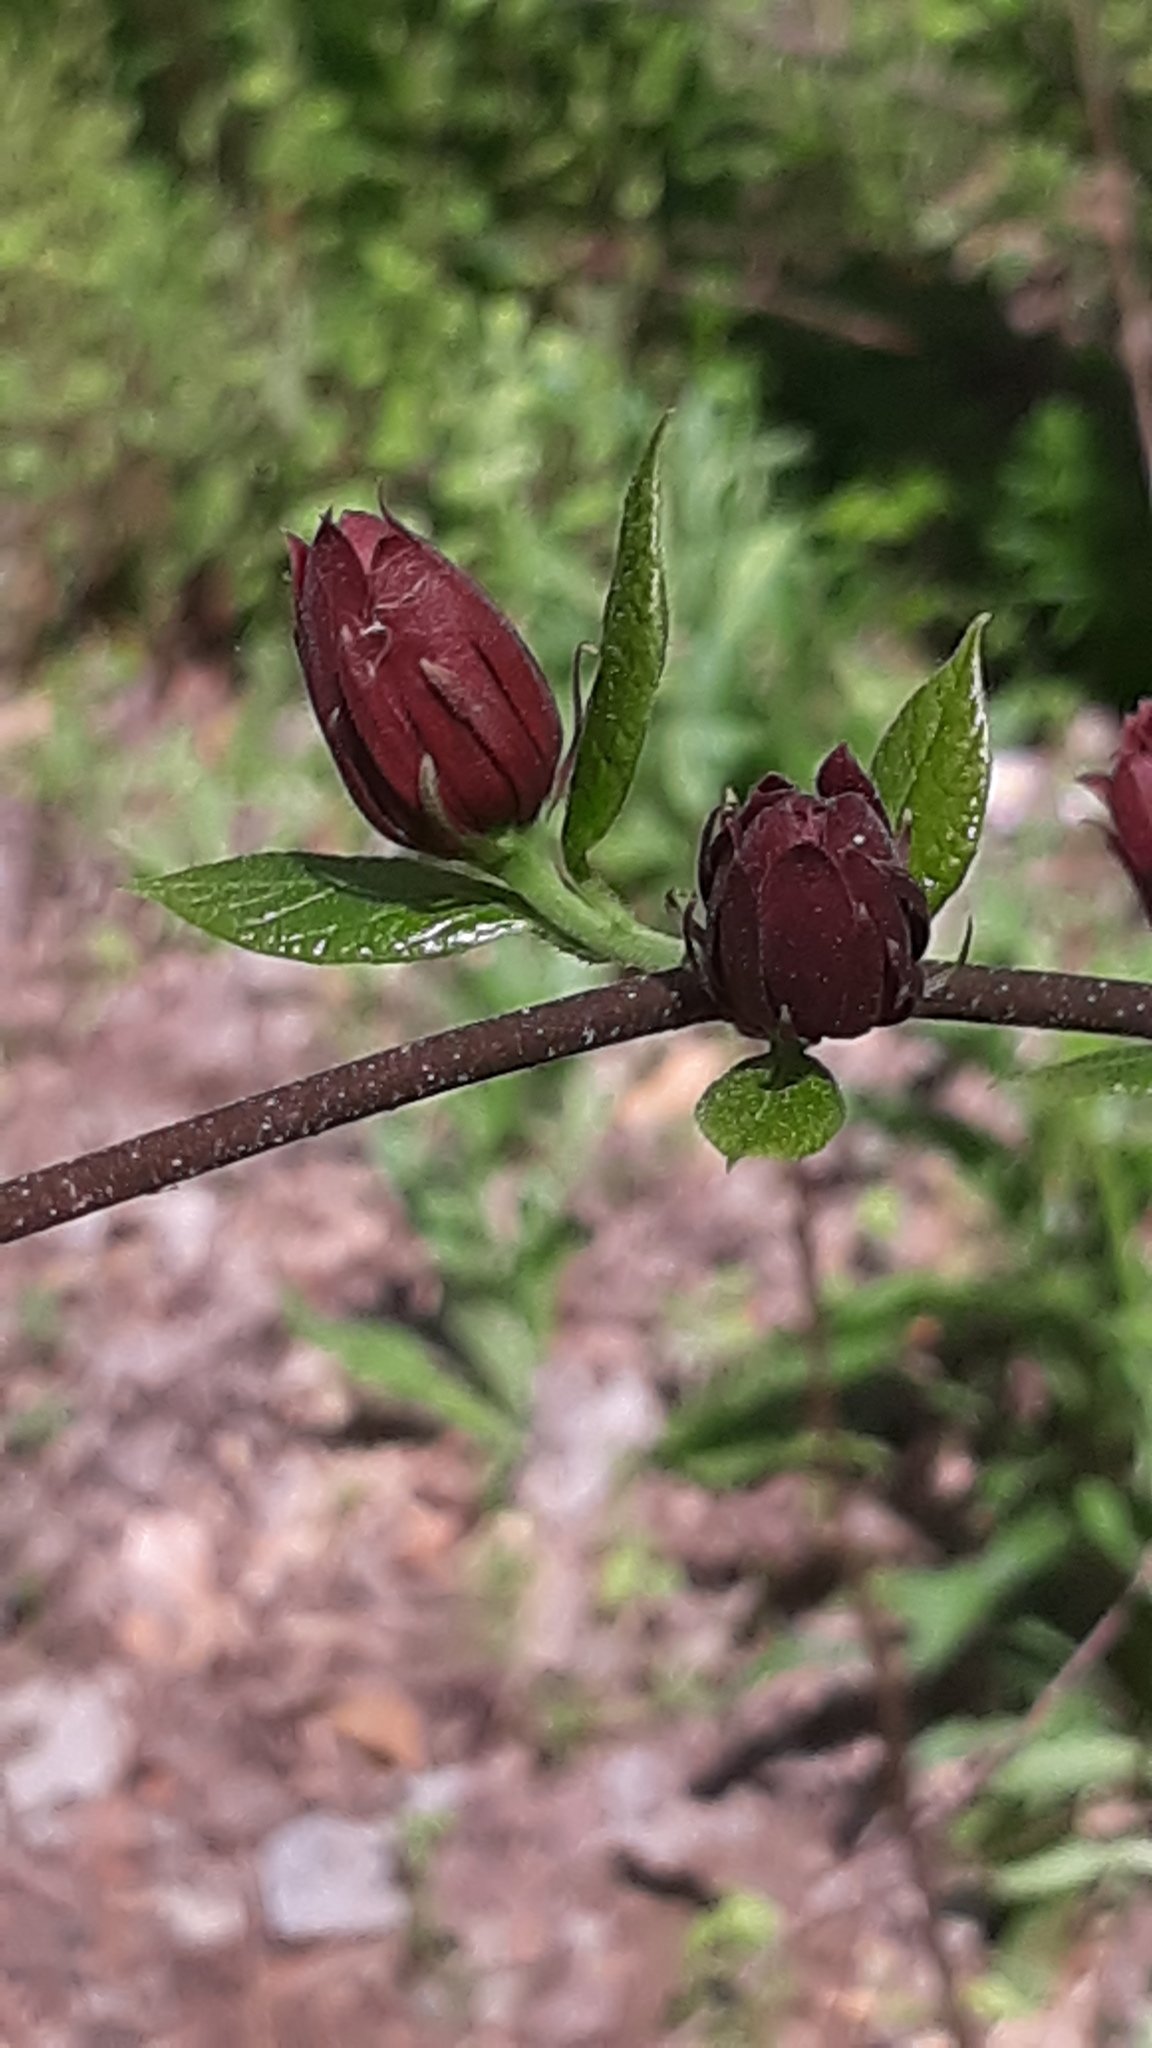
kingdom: Plantae
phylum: Tracheophyta
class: Magnoliopsida
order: Laurales
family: Calycanthaceae
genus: Calycanthus
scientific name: Calycanthus floridus
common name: Carolina-allspice
